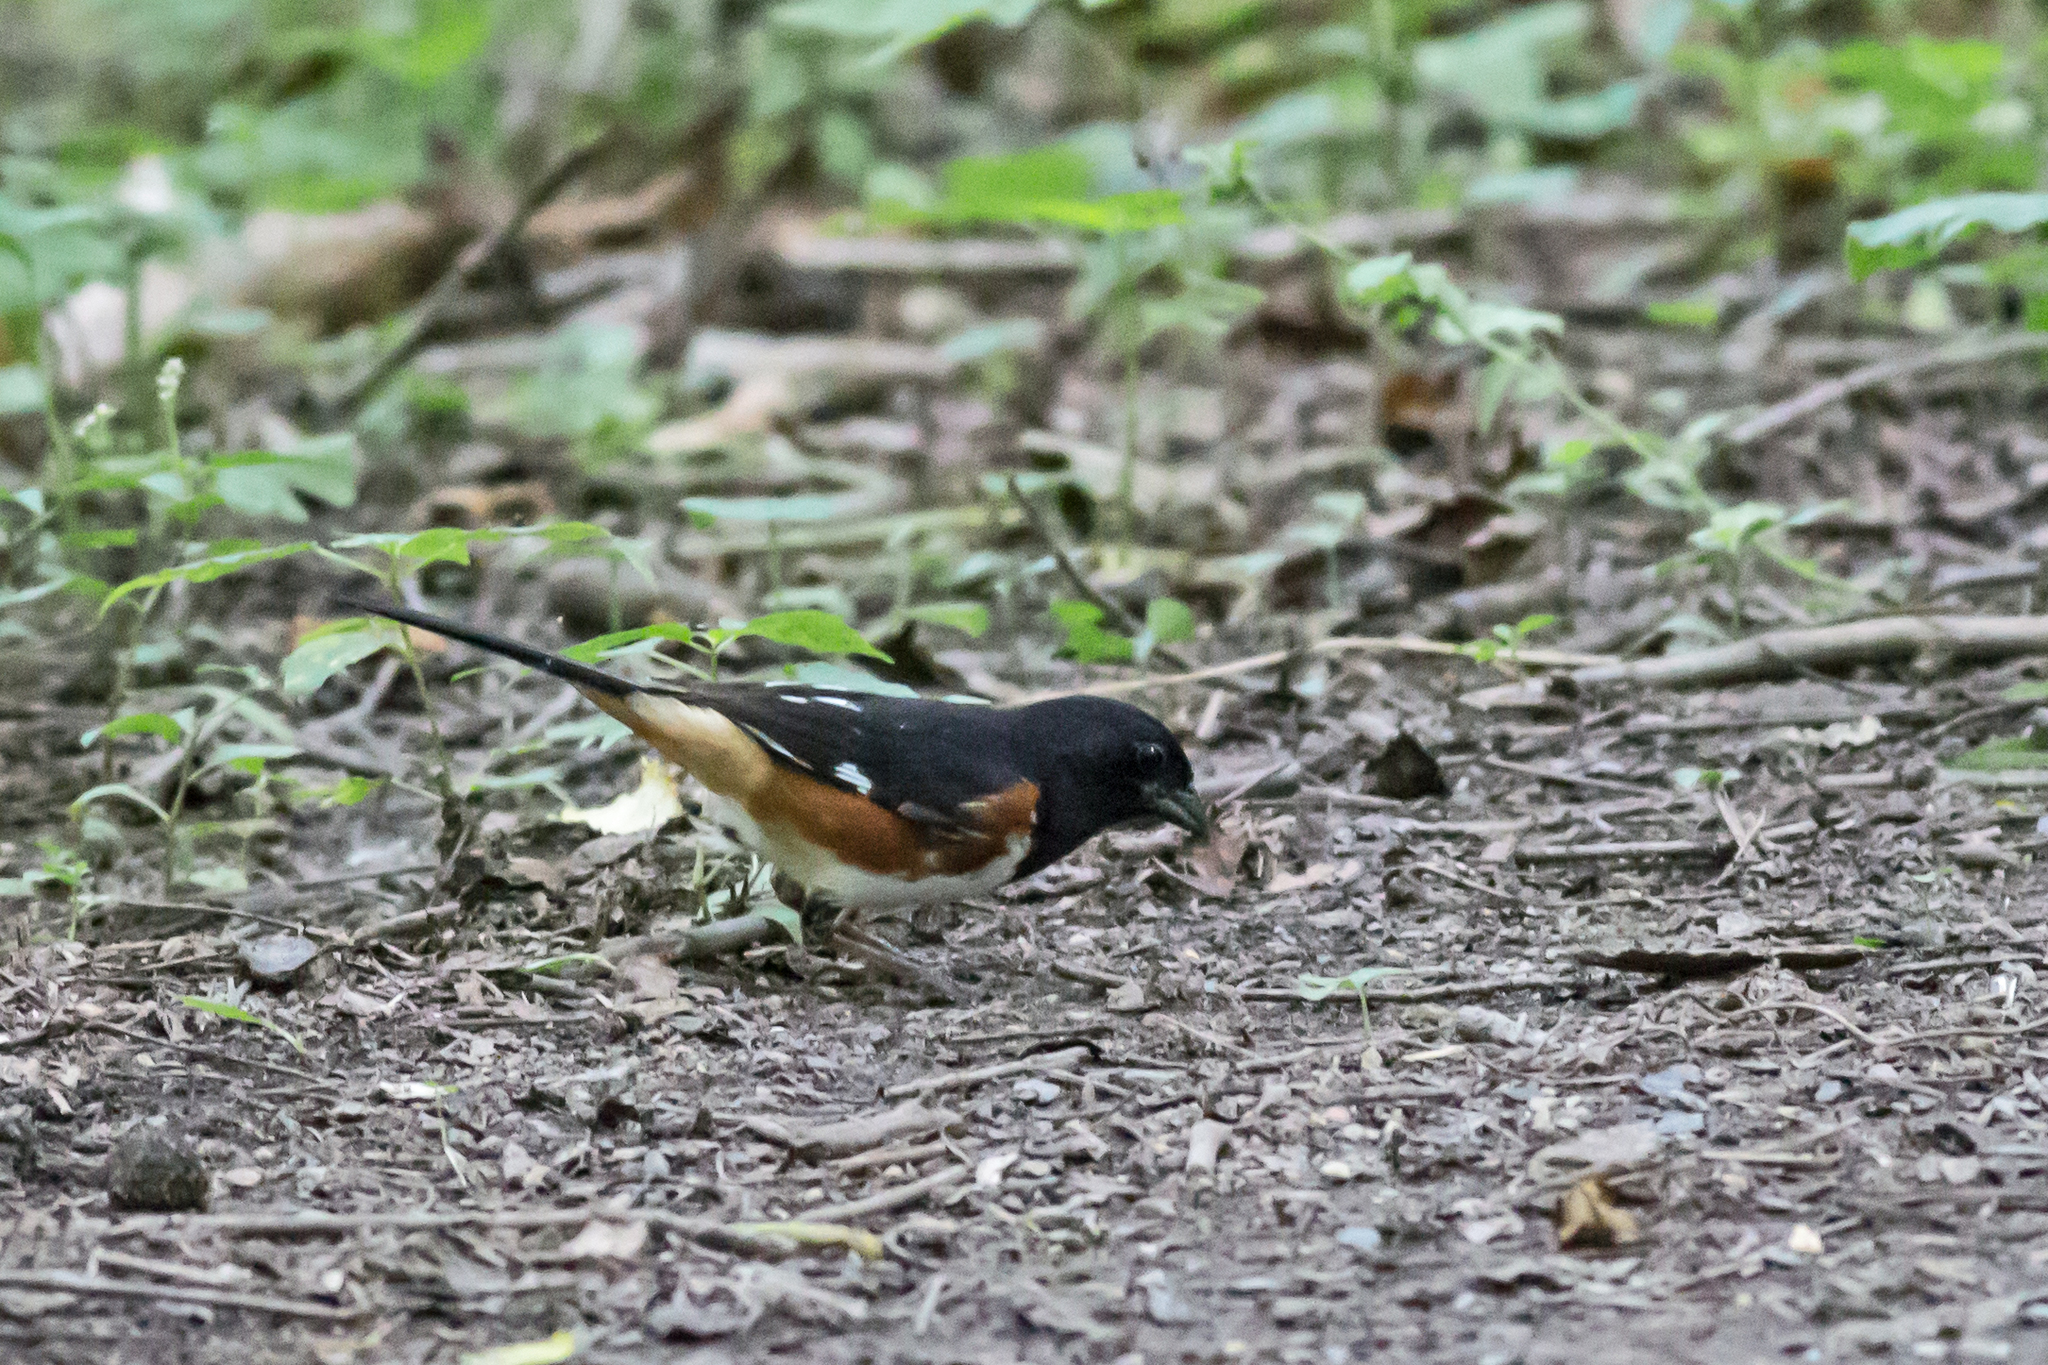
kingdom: Animalia
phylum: Chordata
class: Aves
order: Passeriformes
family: Passerellidae
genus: Pipilo
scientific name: Pipilo erythrophthalmus
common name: Eastern towhee
